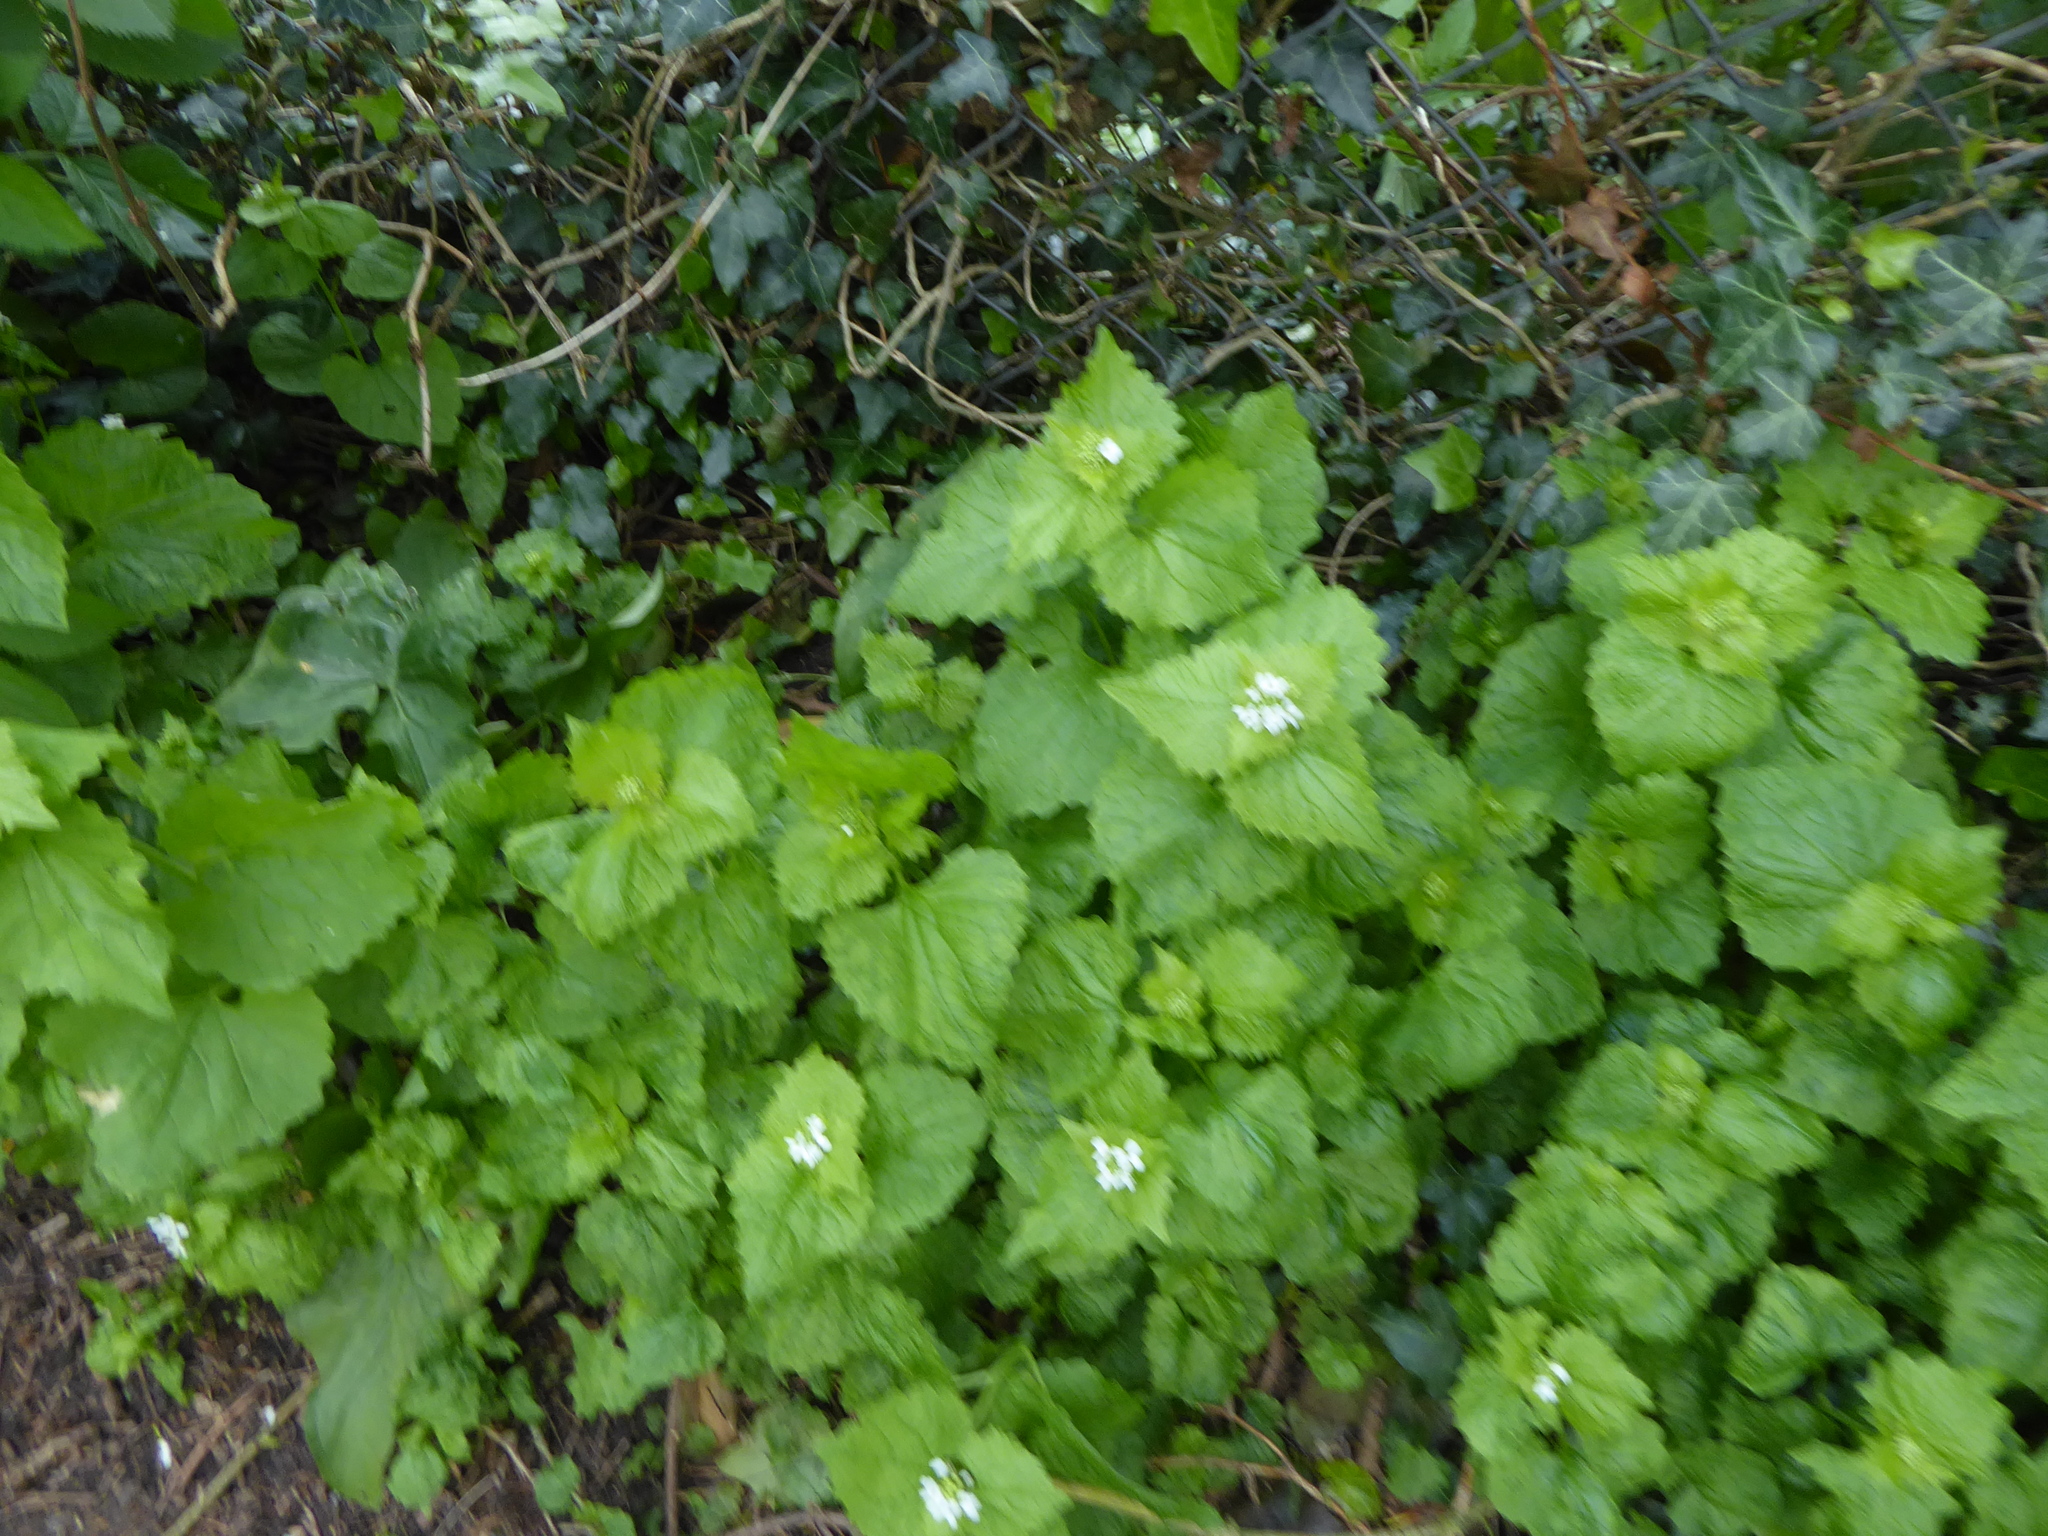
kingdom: Plantae
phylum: Tracheophyta
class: Magnoliopsida
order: Brassicales
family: Brassicaceae
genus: Alliaria
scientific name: Alliaria petiolata
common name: Garlic mustard
